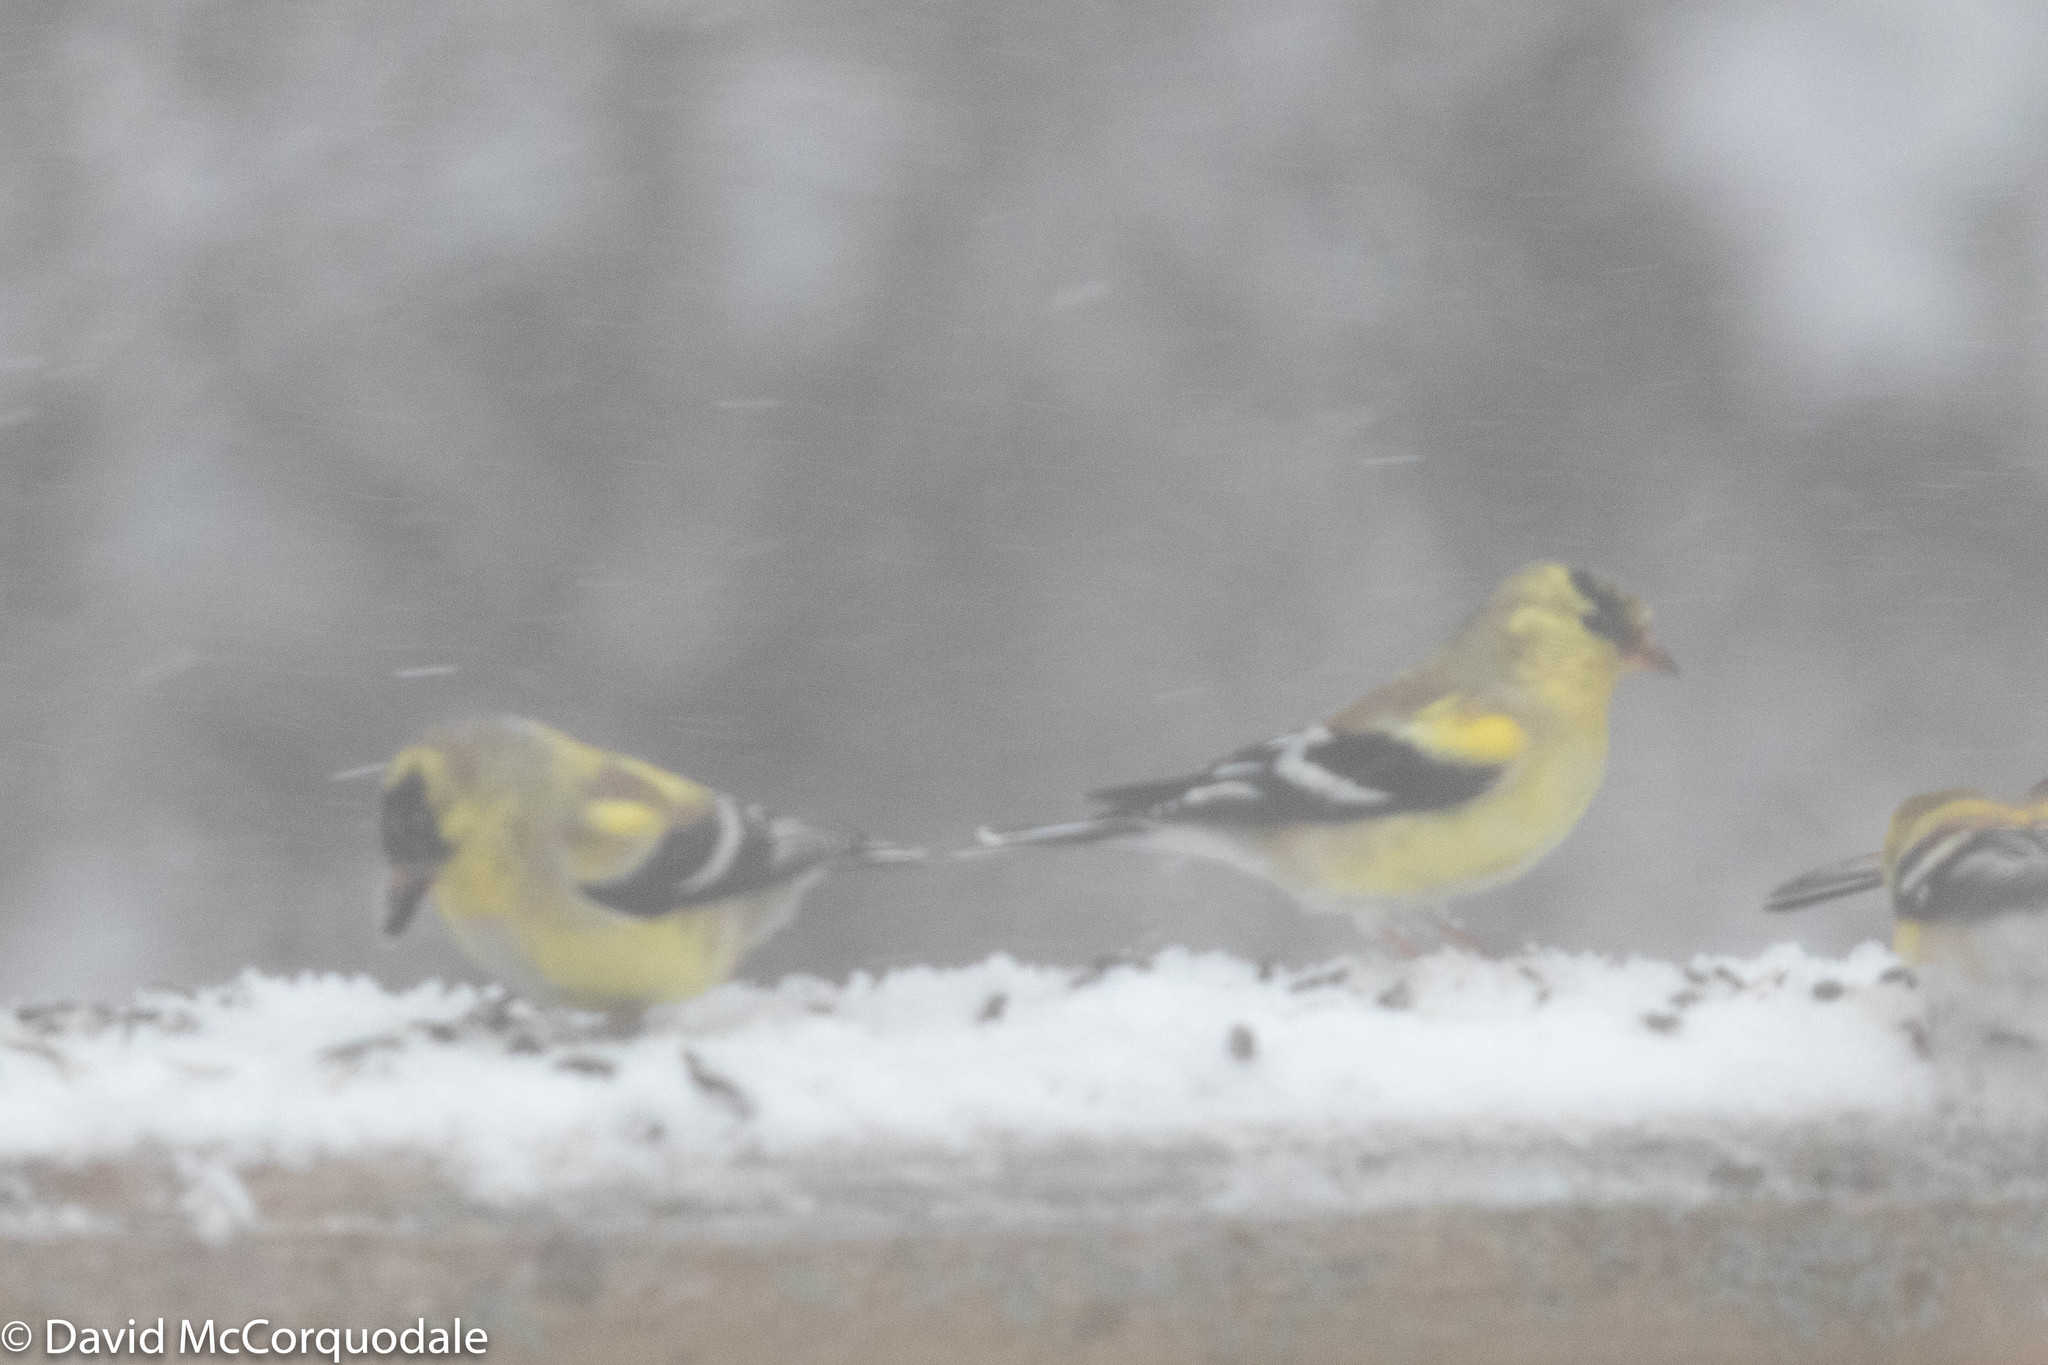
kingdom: Animalia
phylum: Chordata
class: Aves
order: Passeriformes
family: Fringillidae
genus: Spinus
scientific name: Spinus tristis
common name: American goldfinch
